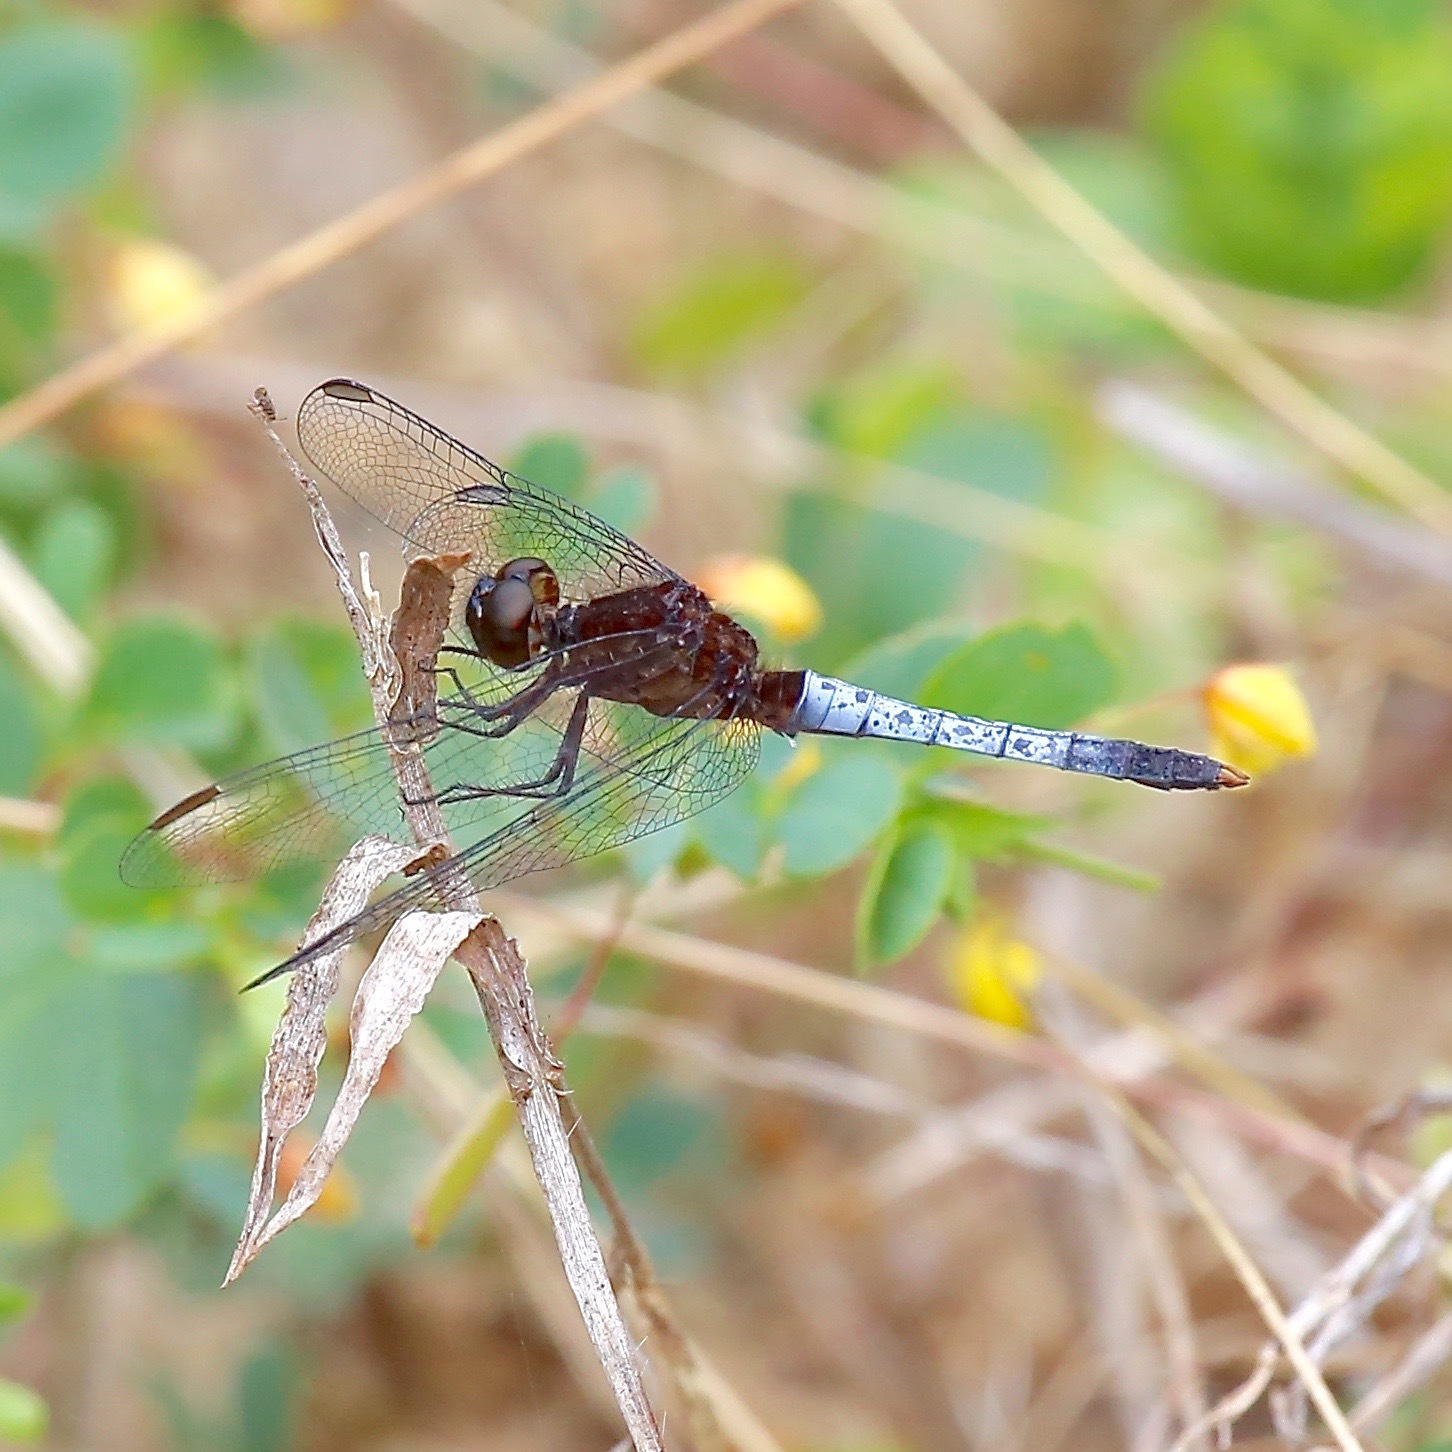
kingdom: Animalia
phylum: Arthropoda
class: Insecta
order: Odonata
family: Libellulidae
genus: Erythrodiplax
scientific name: Erythrodiplax basifusca
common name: Plateau dragonlet
